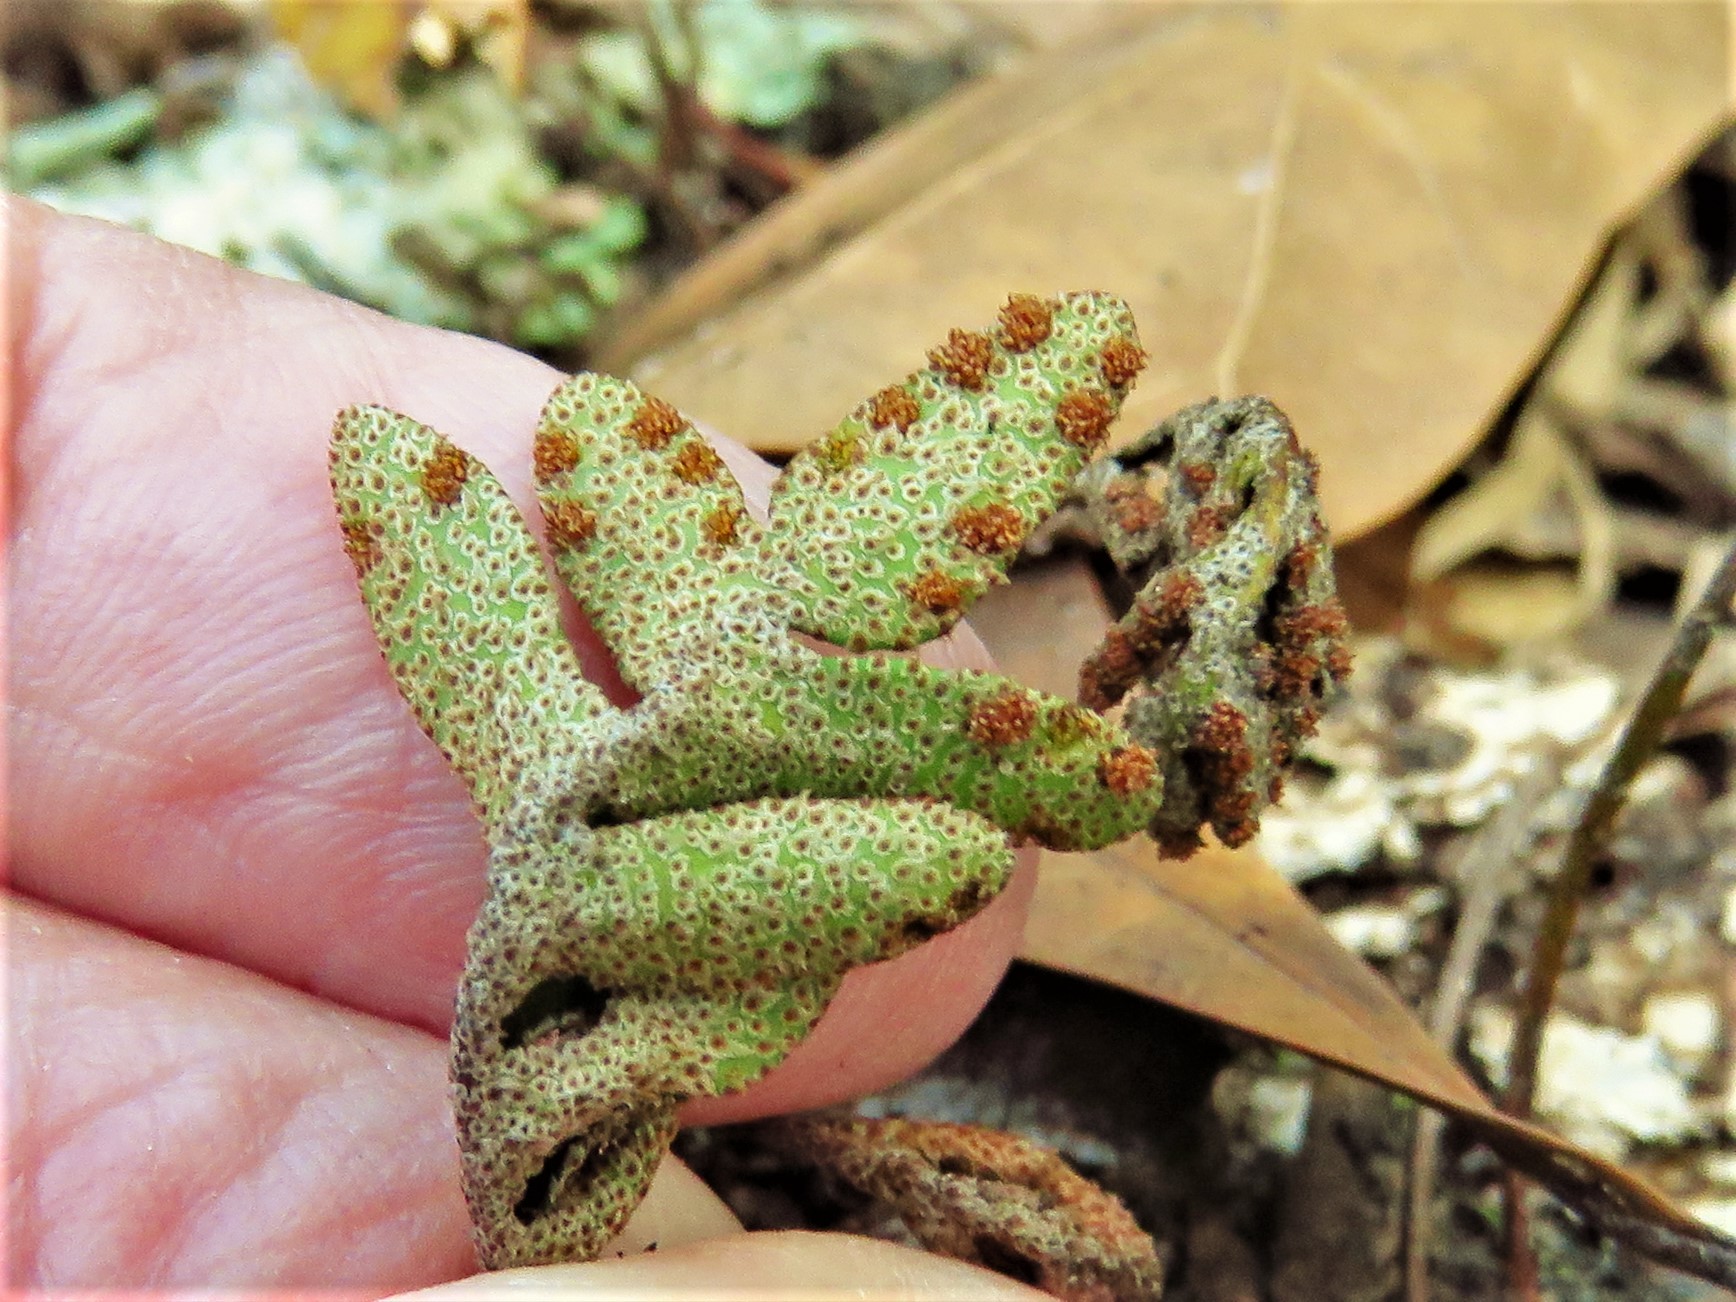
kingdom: Plantae
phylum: Tracheophyta
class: Polypodiopsida
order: Polypodiales
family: Polypodiaceae
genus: Pleopeltis
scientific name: Pleopeltis michauxiana
